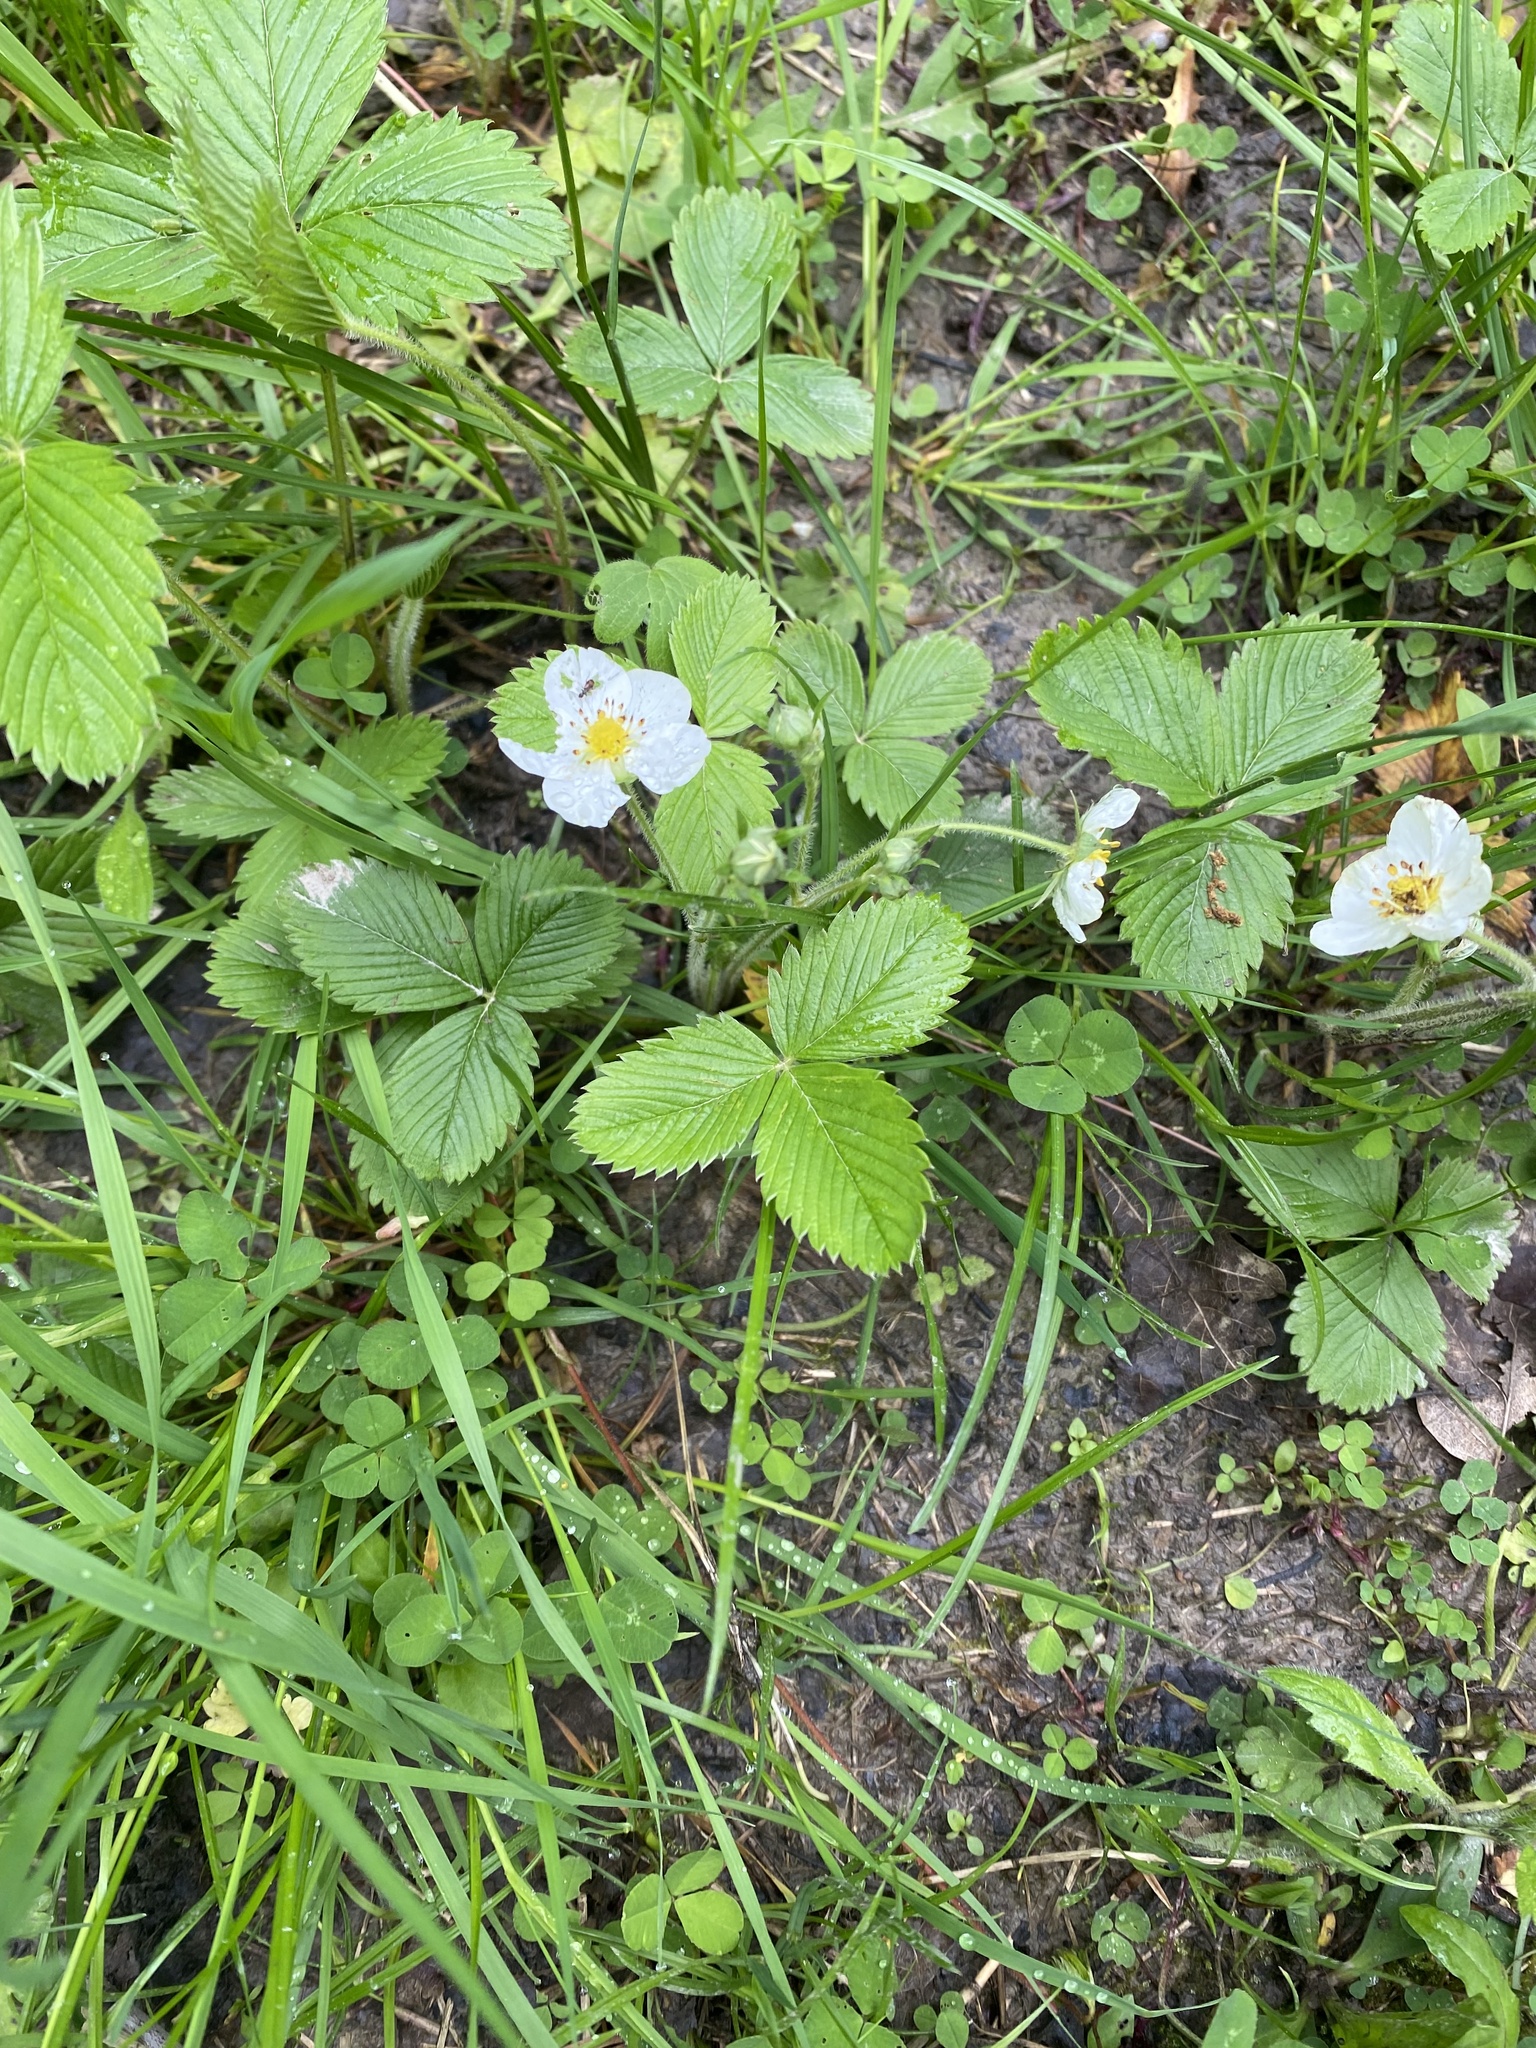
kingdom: Plantae
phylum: Tracheophyta
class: Magnoliopsida
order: Rosales
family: Rosaceae
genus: Fragaria
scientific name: Fragaria viridis
